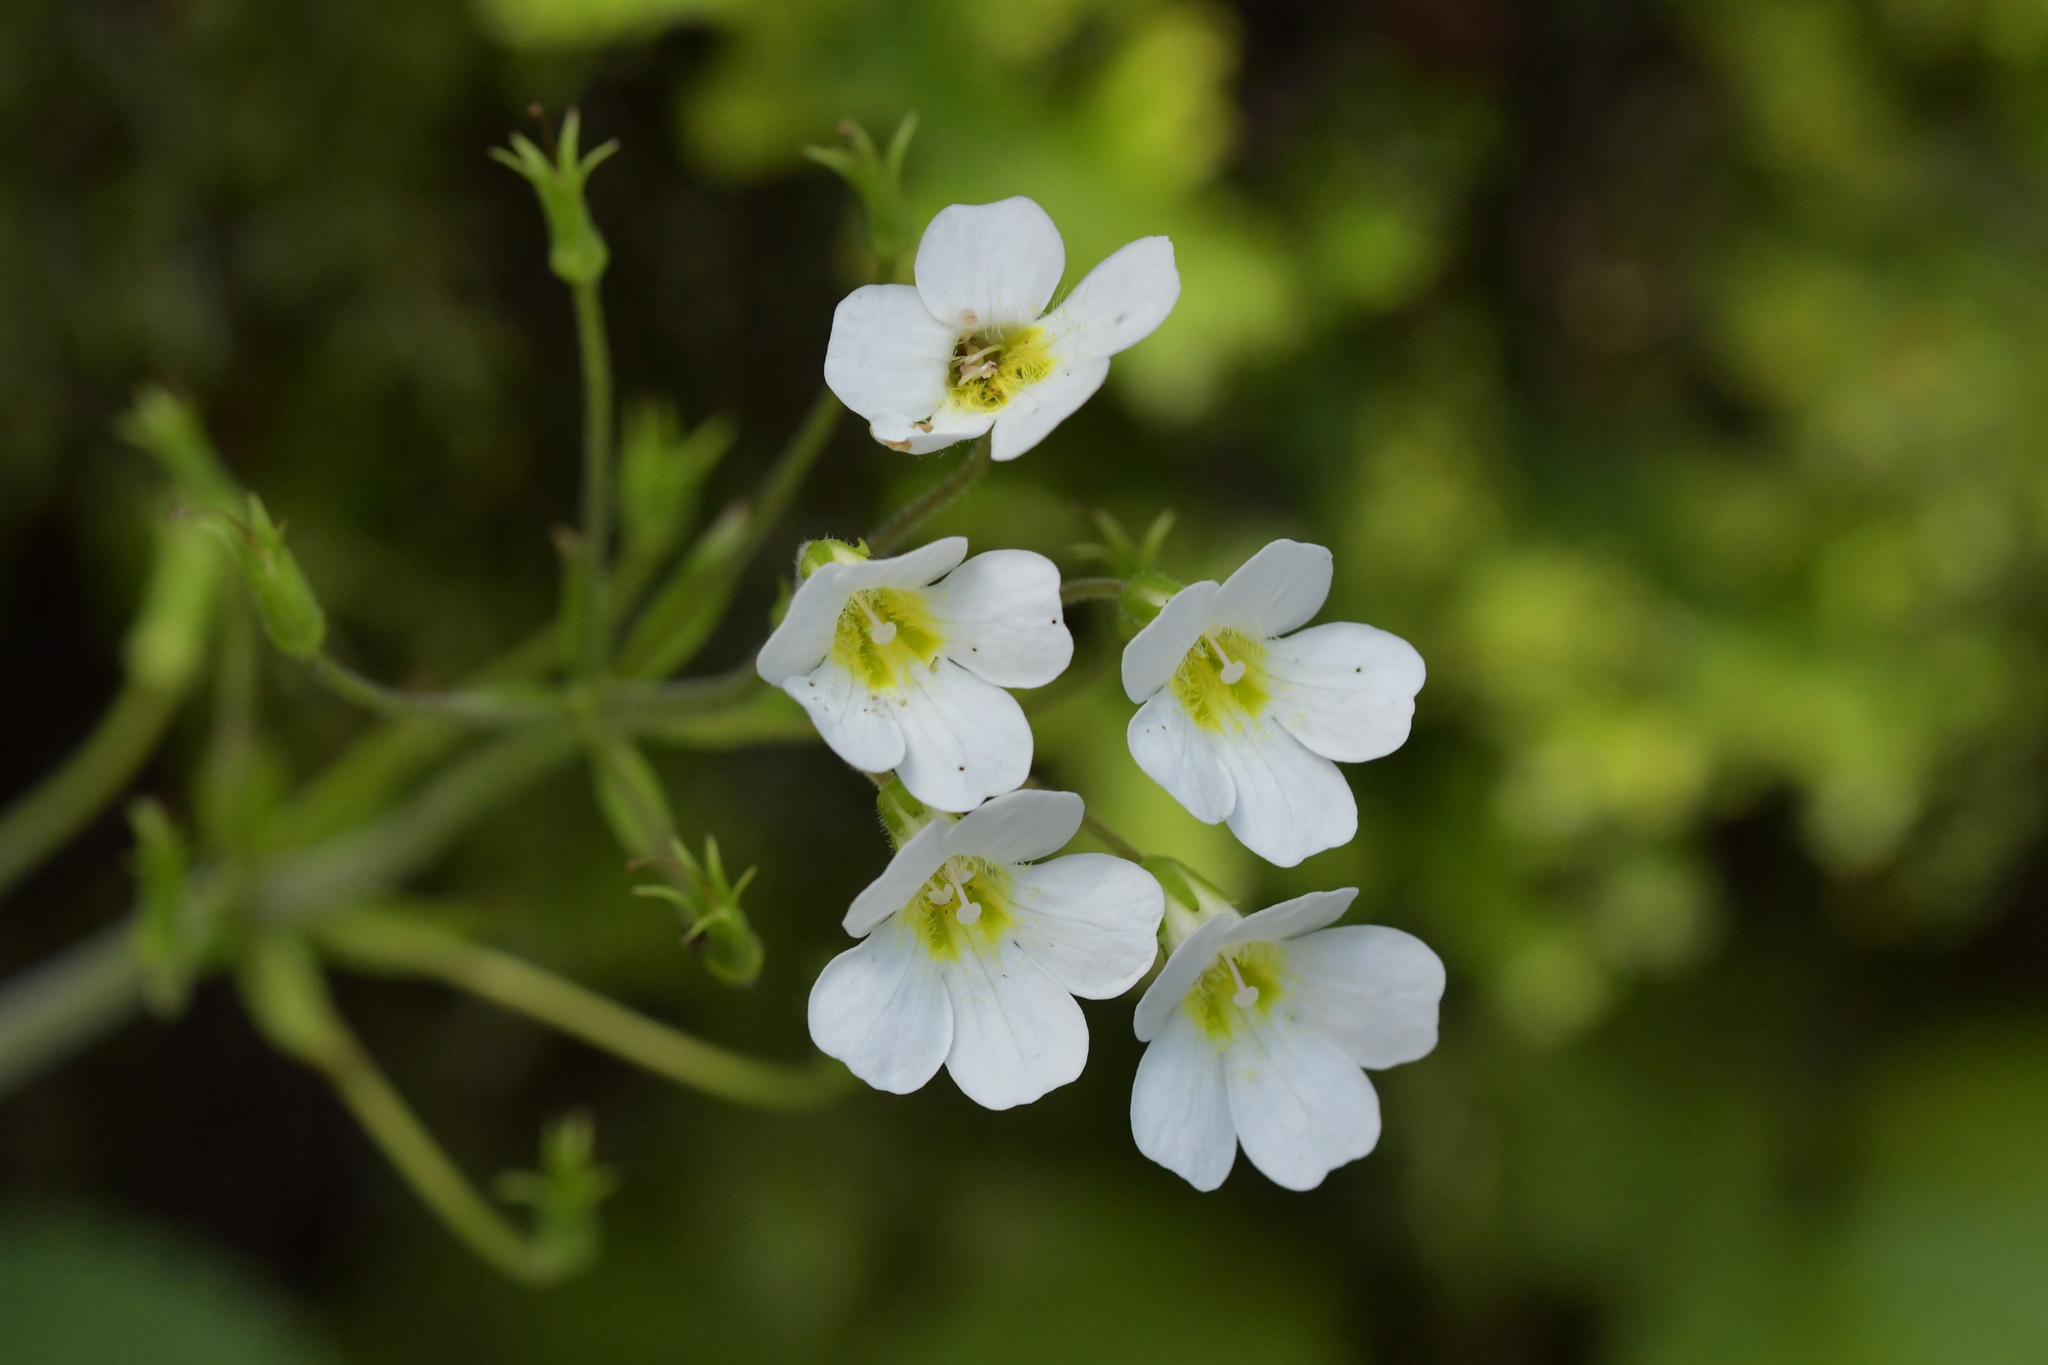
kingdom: Plantae
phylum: Tracheophyta
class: Magnoliopsida
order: Lamiales
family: Plantaginaceae
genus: Ourisia
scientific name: Ourisia macrophylla
